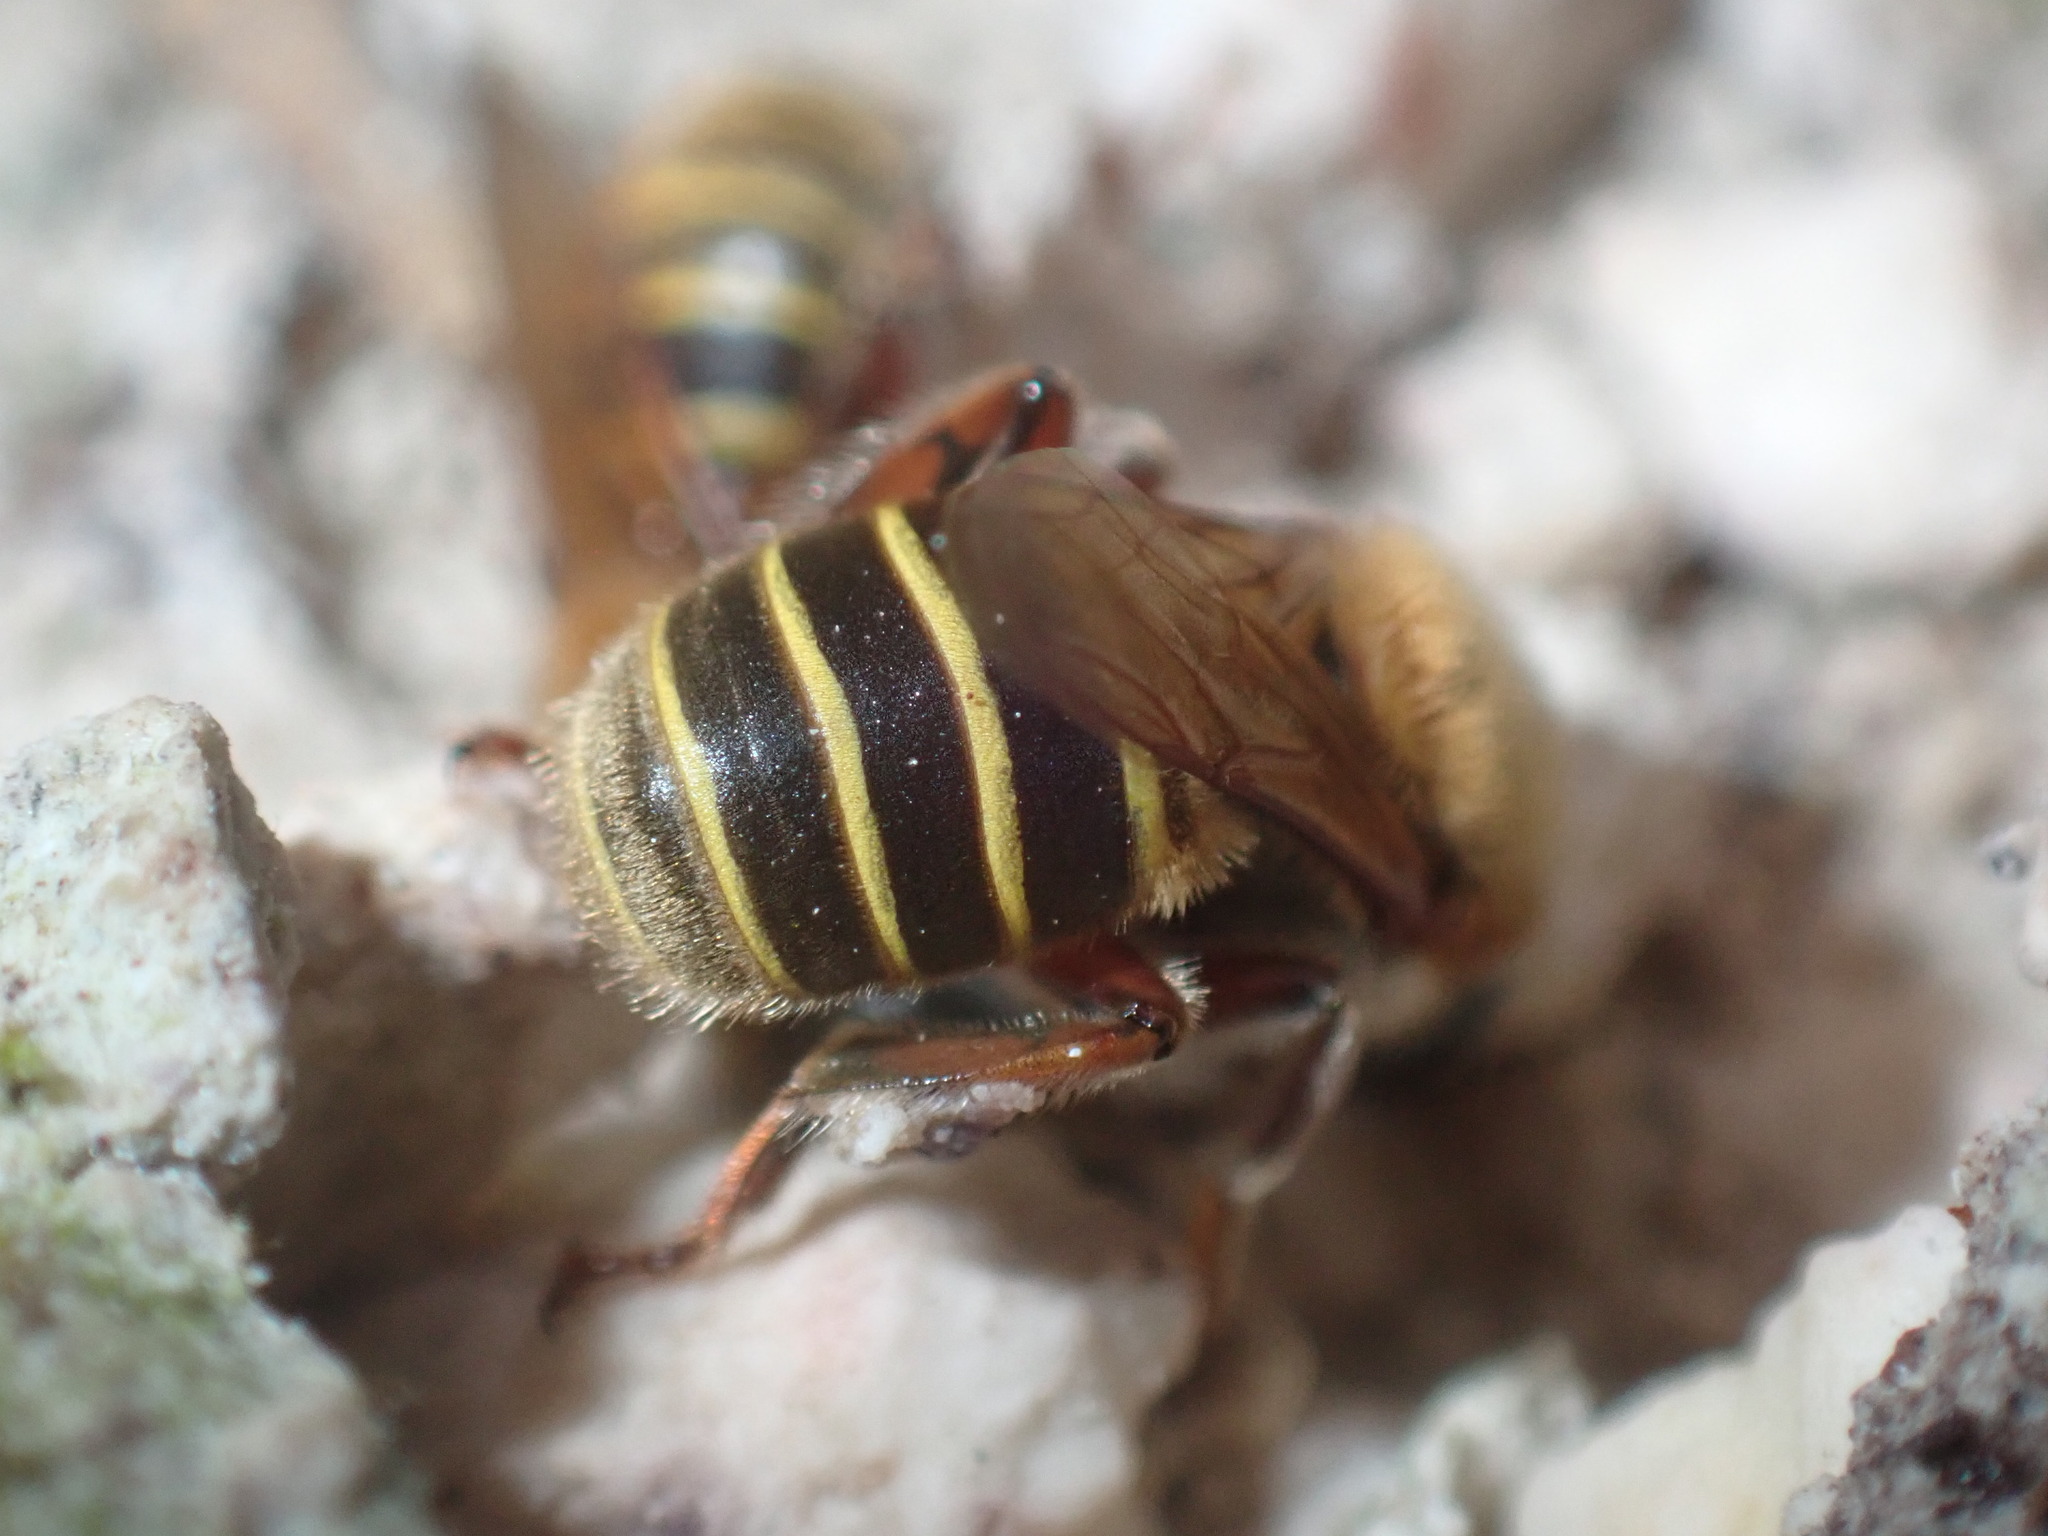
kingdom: Animalia
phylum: Arthropoda
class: Insecta
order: Hymenoptera
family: Apidae
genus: Melipona
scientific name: Melipona beecheii
